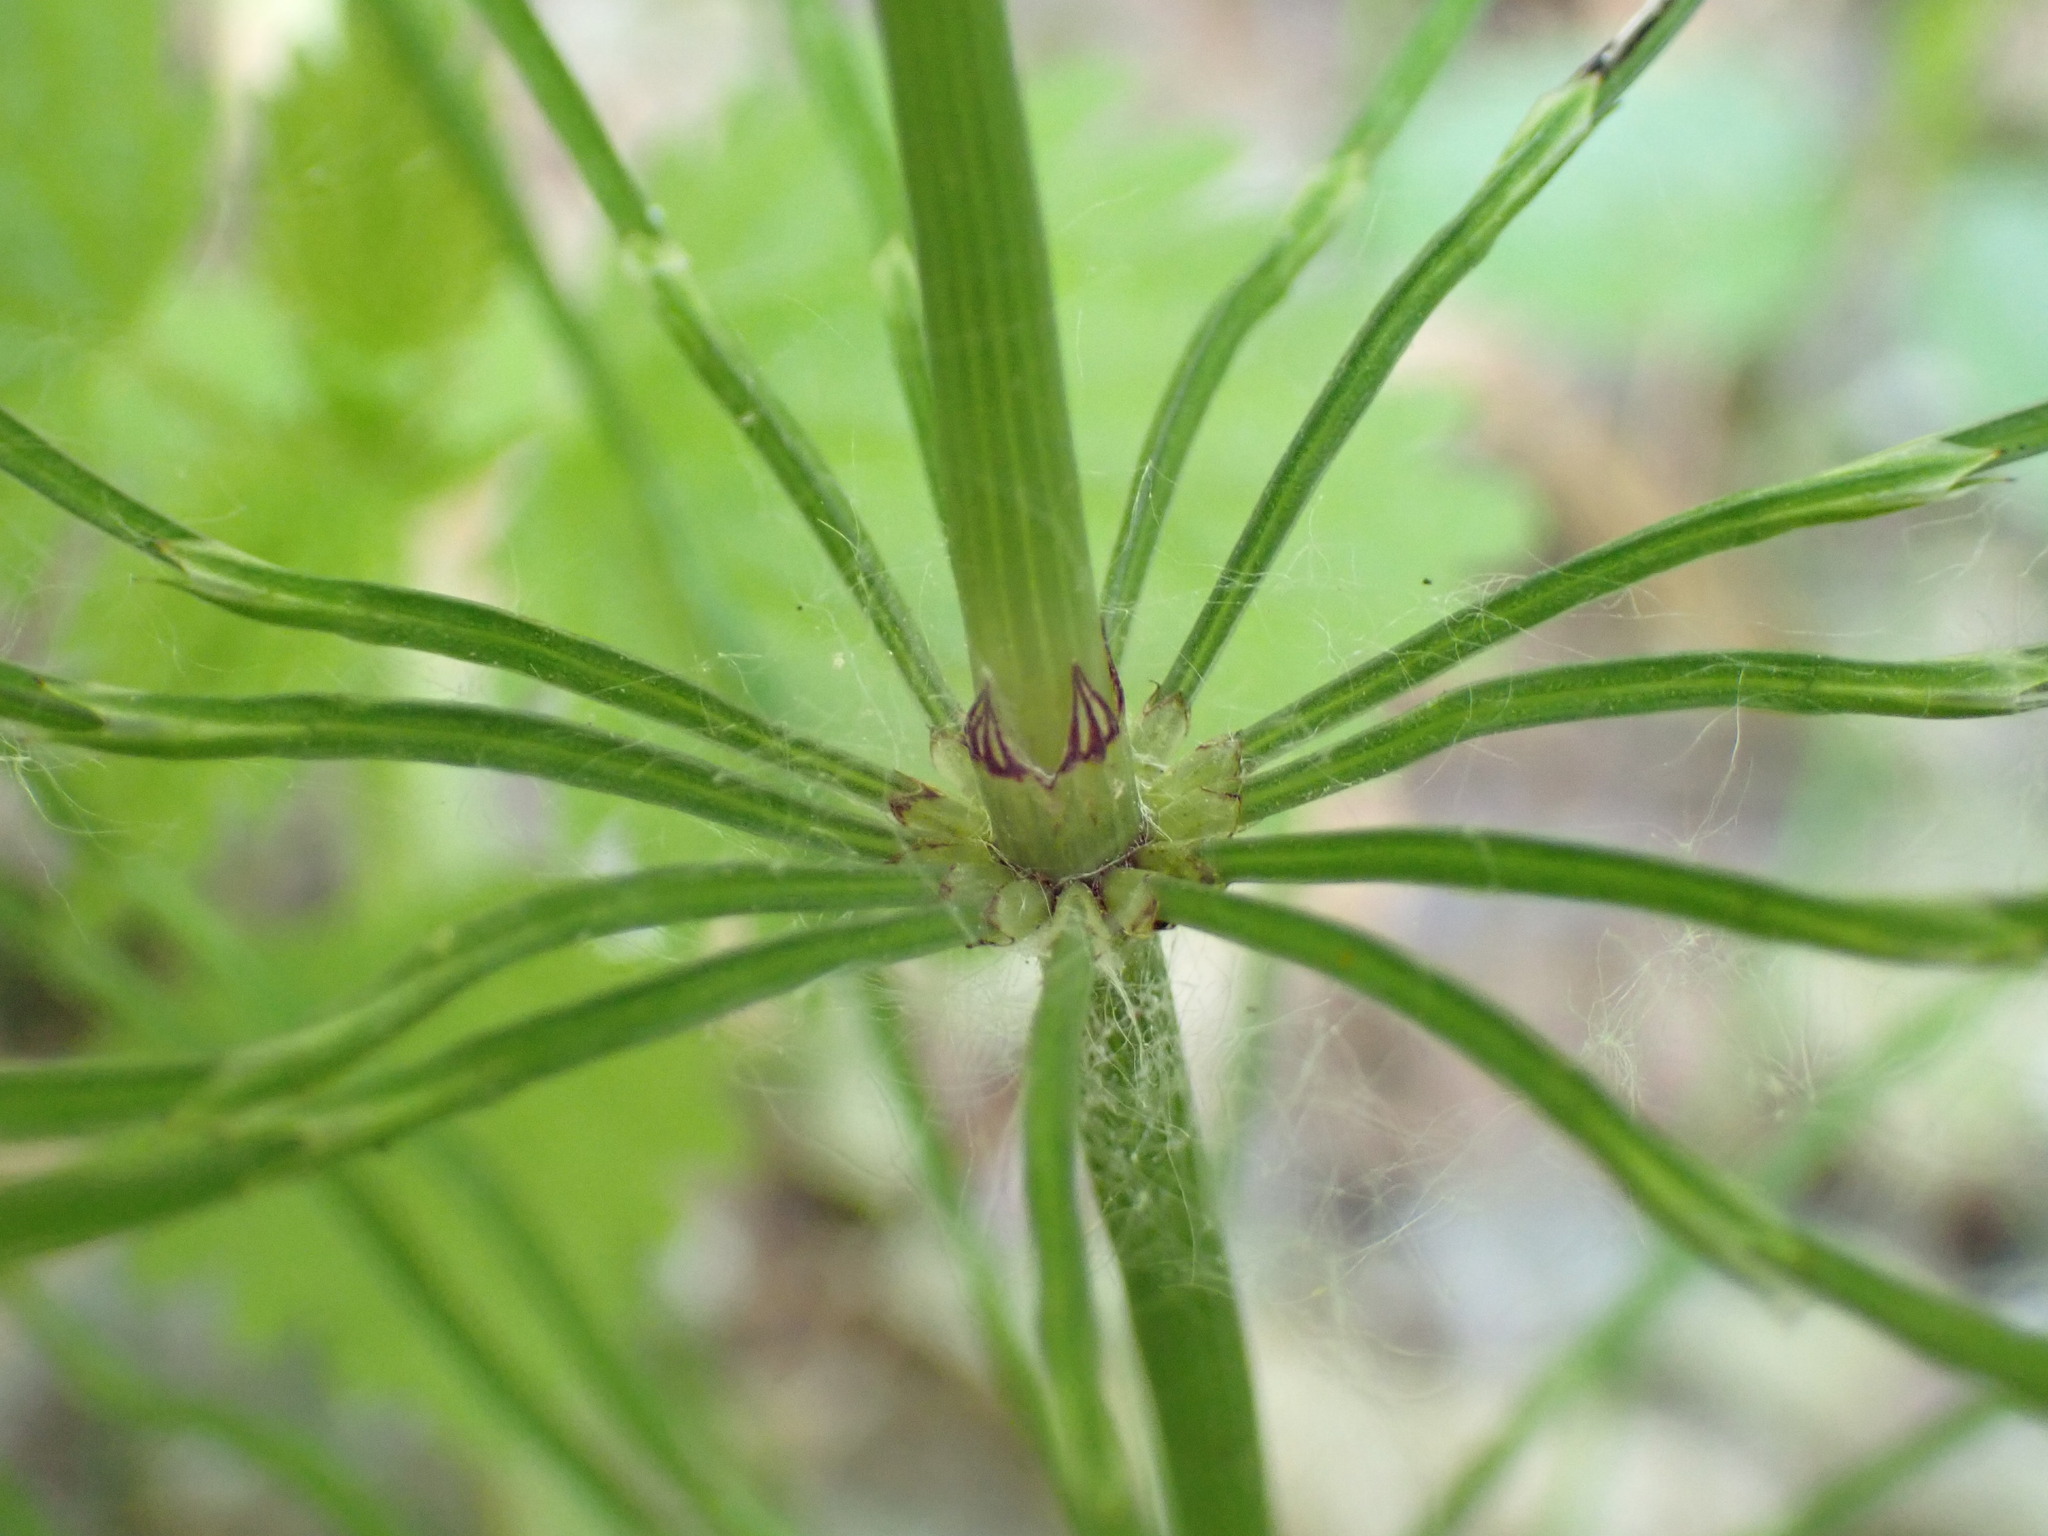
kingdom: Plantae
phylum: Tracheophyta
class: Polypodiopsida
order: Equisetales
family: Equisetaceae
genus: Equisetum
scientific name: Equisetum arvense
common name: Field horsetail
